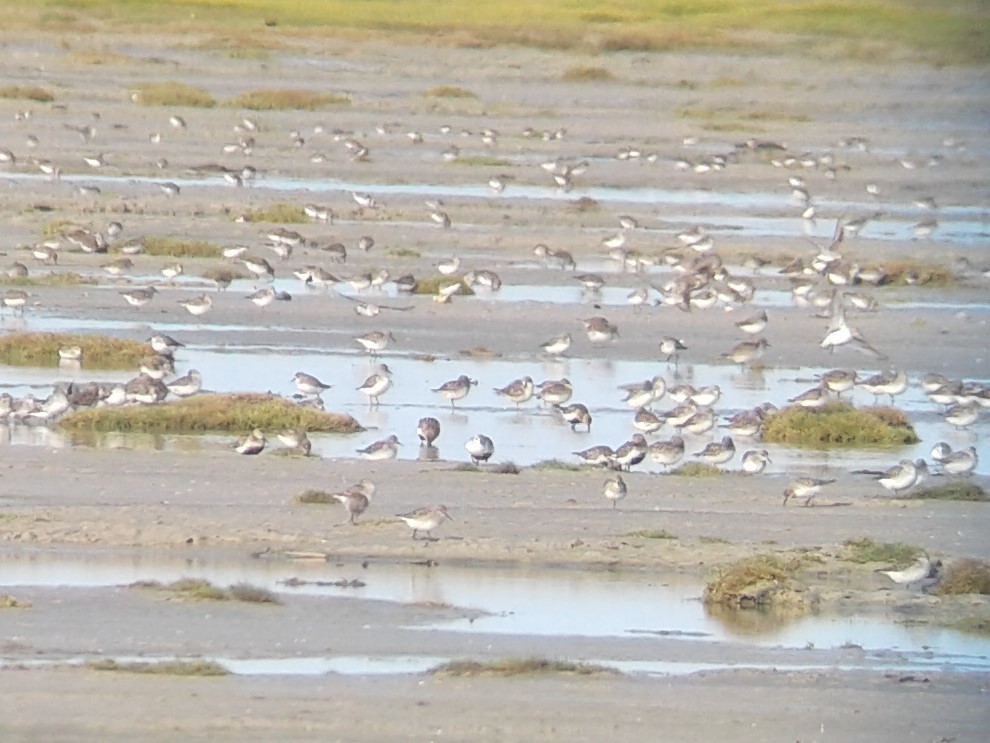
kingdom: Animalia
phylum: Chordata
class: Aves
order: Charadriiformes
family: Scolopacidae
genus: Calidris
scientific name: Calidris
